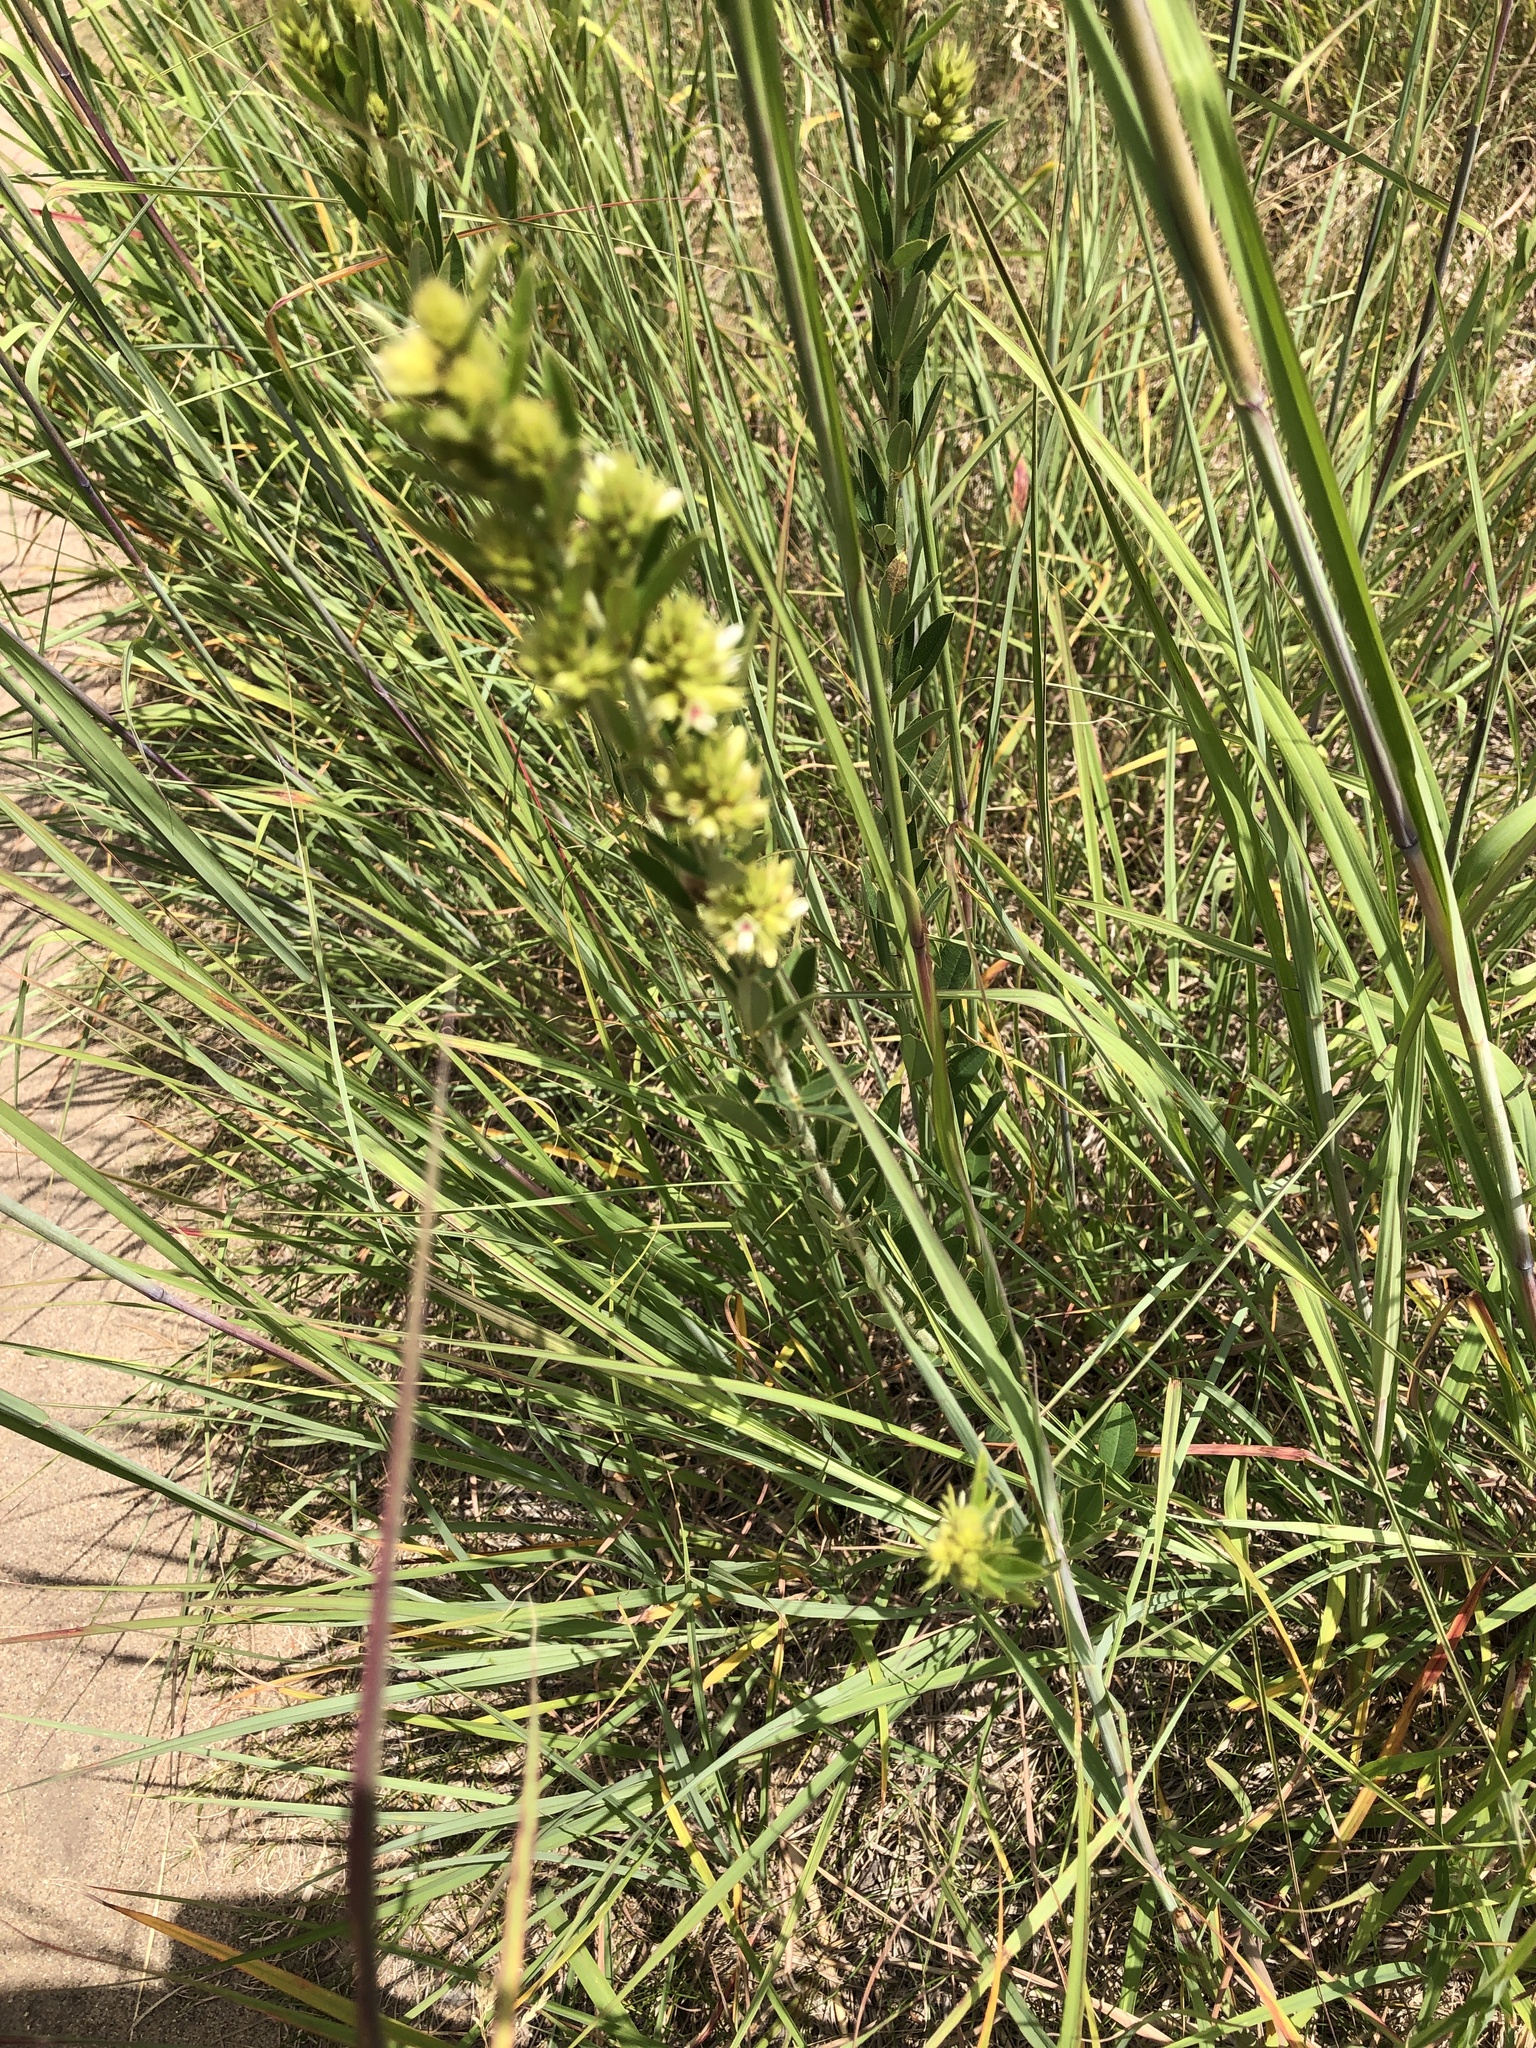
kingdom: Plantae
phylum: Tracheophyta
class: Magnoliopsida
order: Fabales
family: Fabaceae
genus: Lespedeza
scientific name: Lespedeza capitata
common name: Dusty clover
